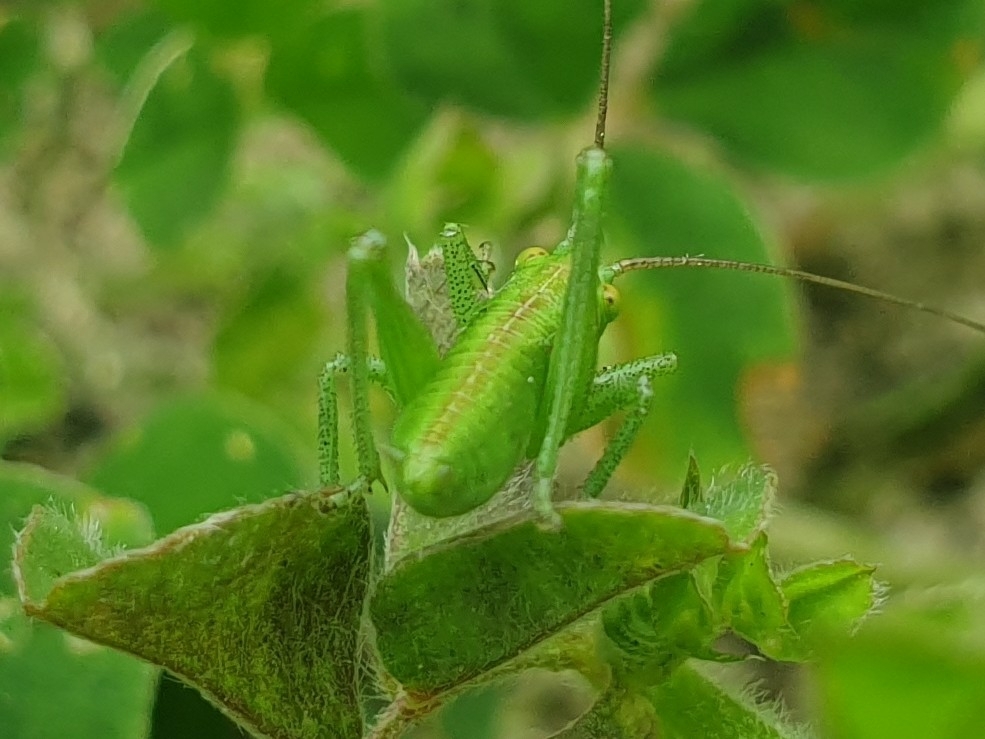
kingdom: Animalia
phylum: Arthropoda
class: Insecta
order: Orthoptera
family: Tettigoniidae
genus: Tettigonia
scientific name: Tettigonia viridissima
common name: Great green bush-cricket
